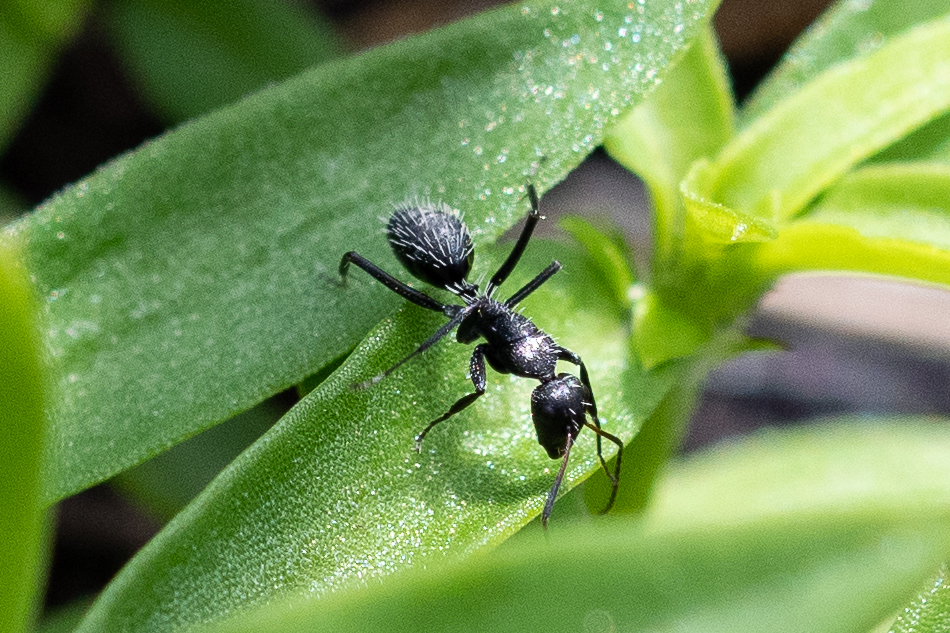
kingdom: Animalia
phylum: Arthropoda
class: Insecta
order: Hymenoptera
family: Formicidae
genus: Camponotus
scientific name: Camponotus niveosetosus
